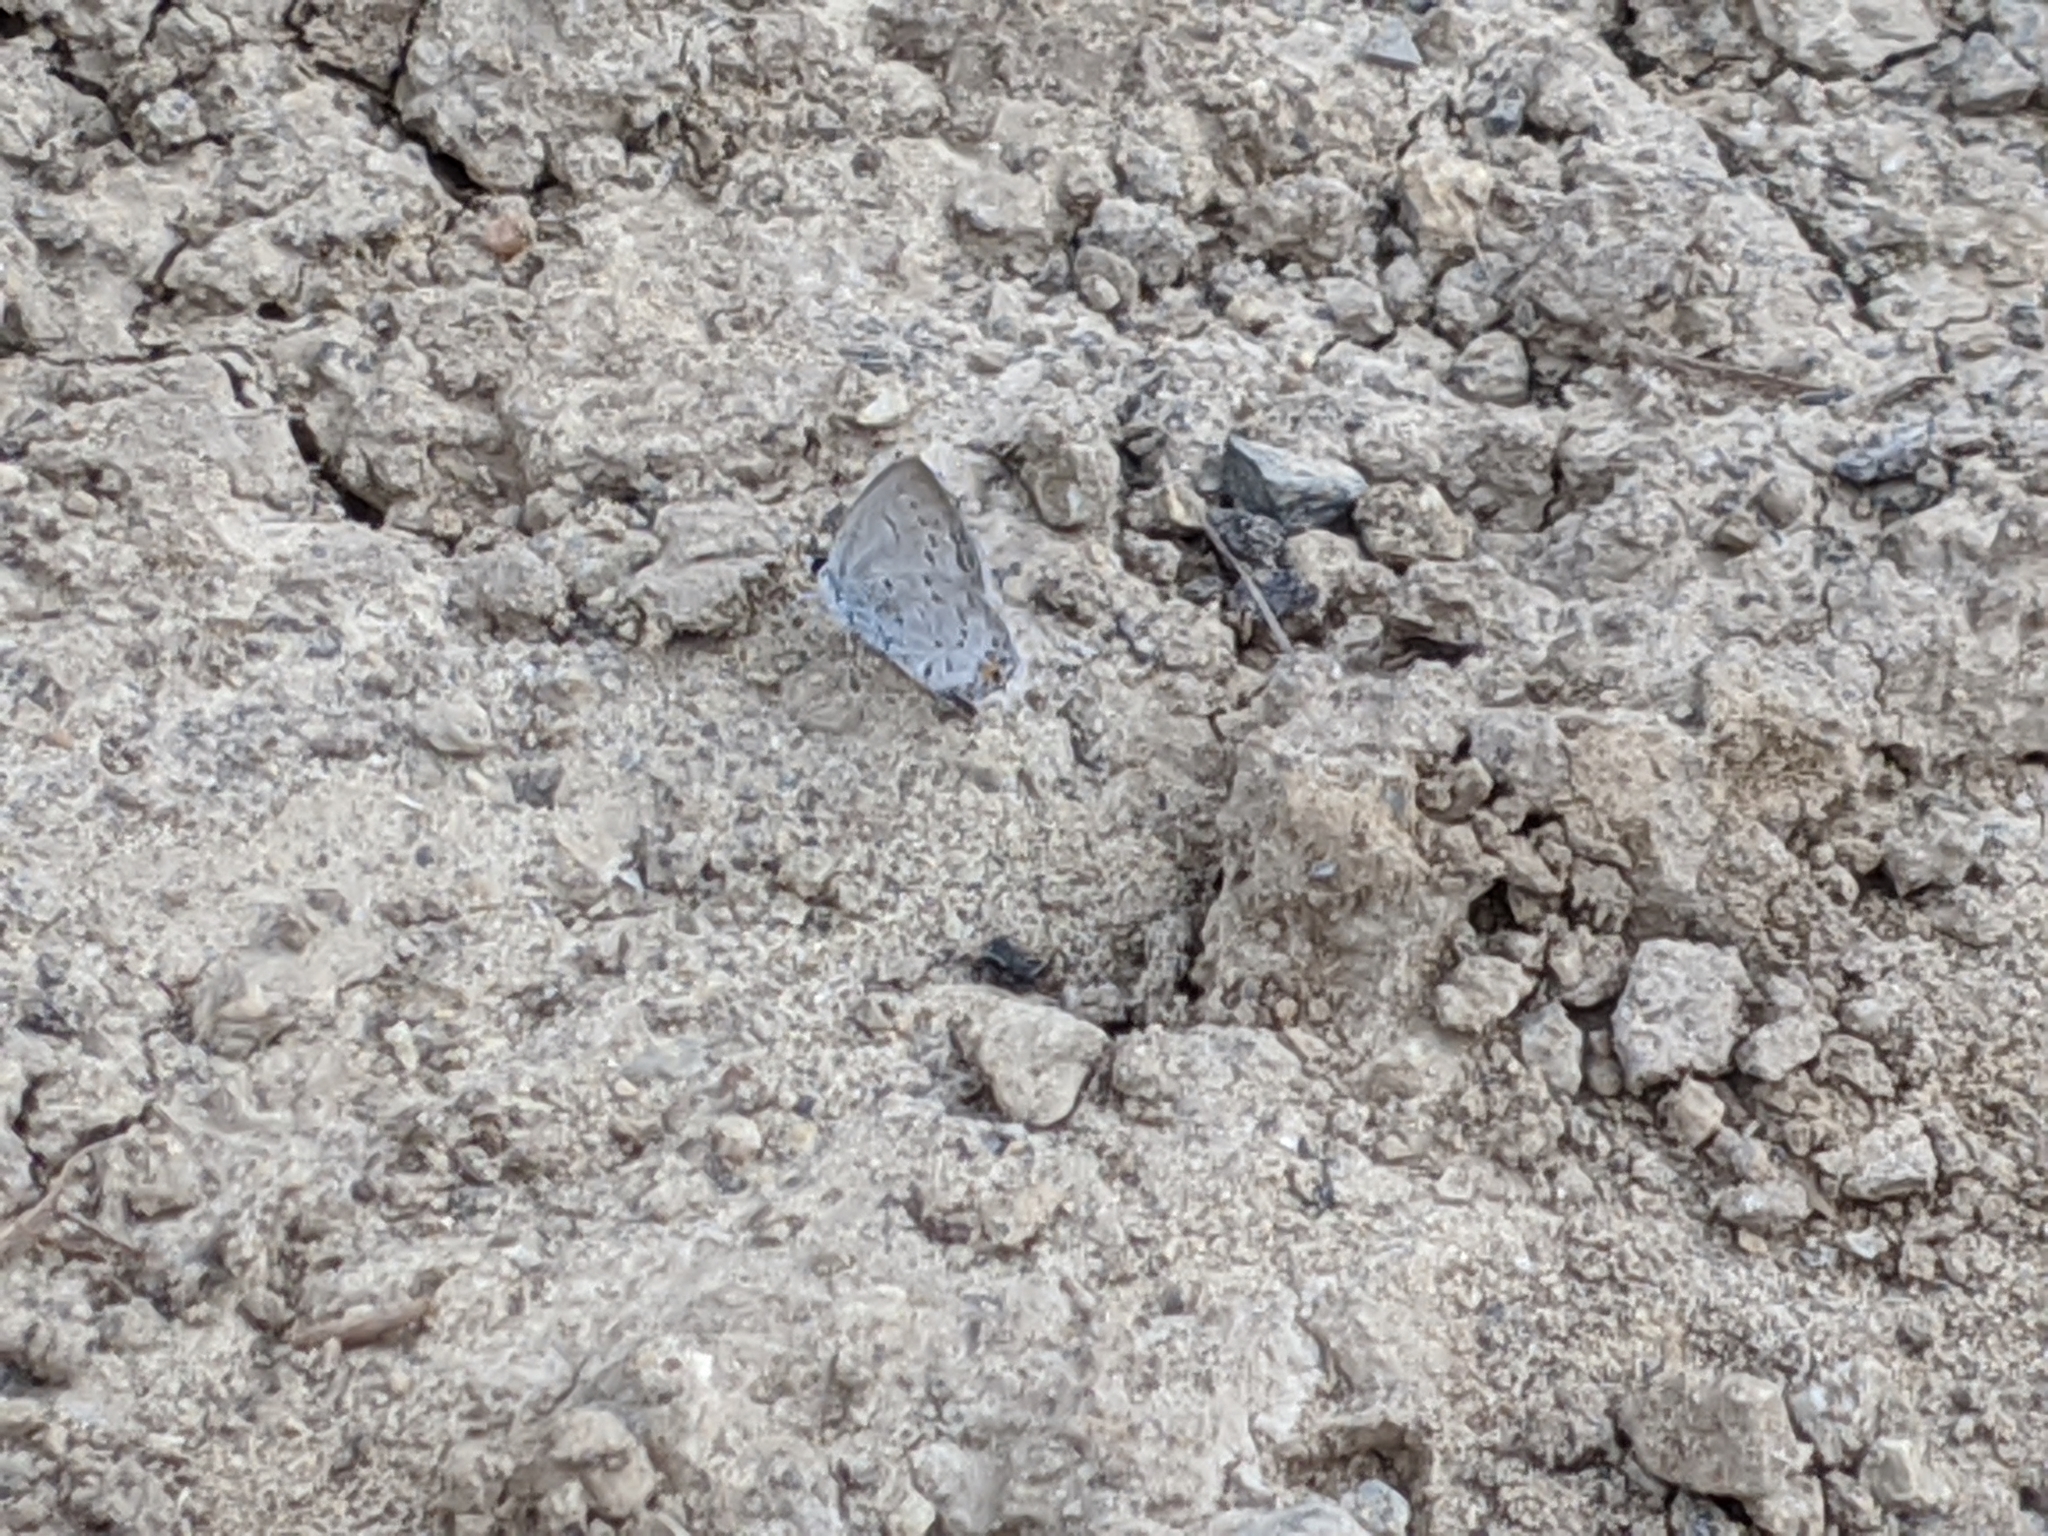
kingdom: Animalia
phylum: Arthropoda
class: Insecta
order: Lepidoptera
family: Lycaenidae
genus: Elkalyce
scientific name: Elkalyce comyntas
